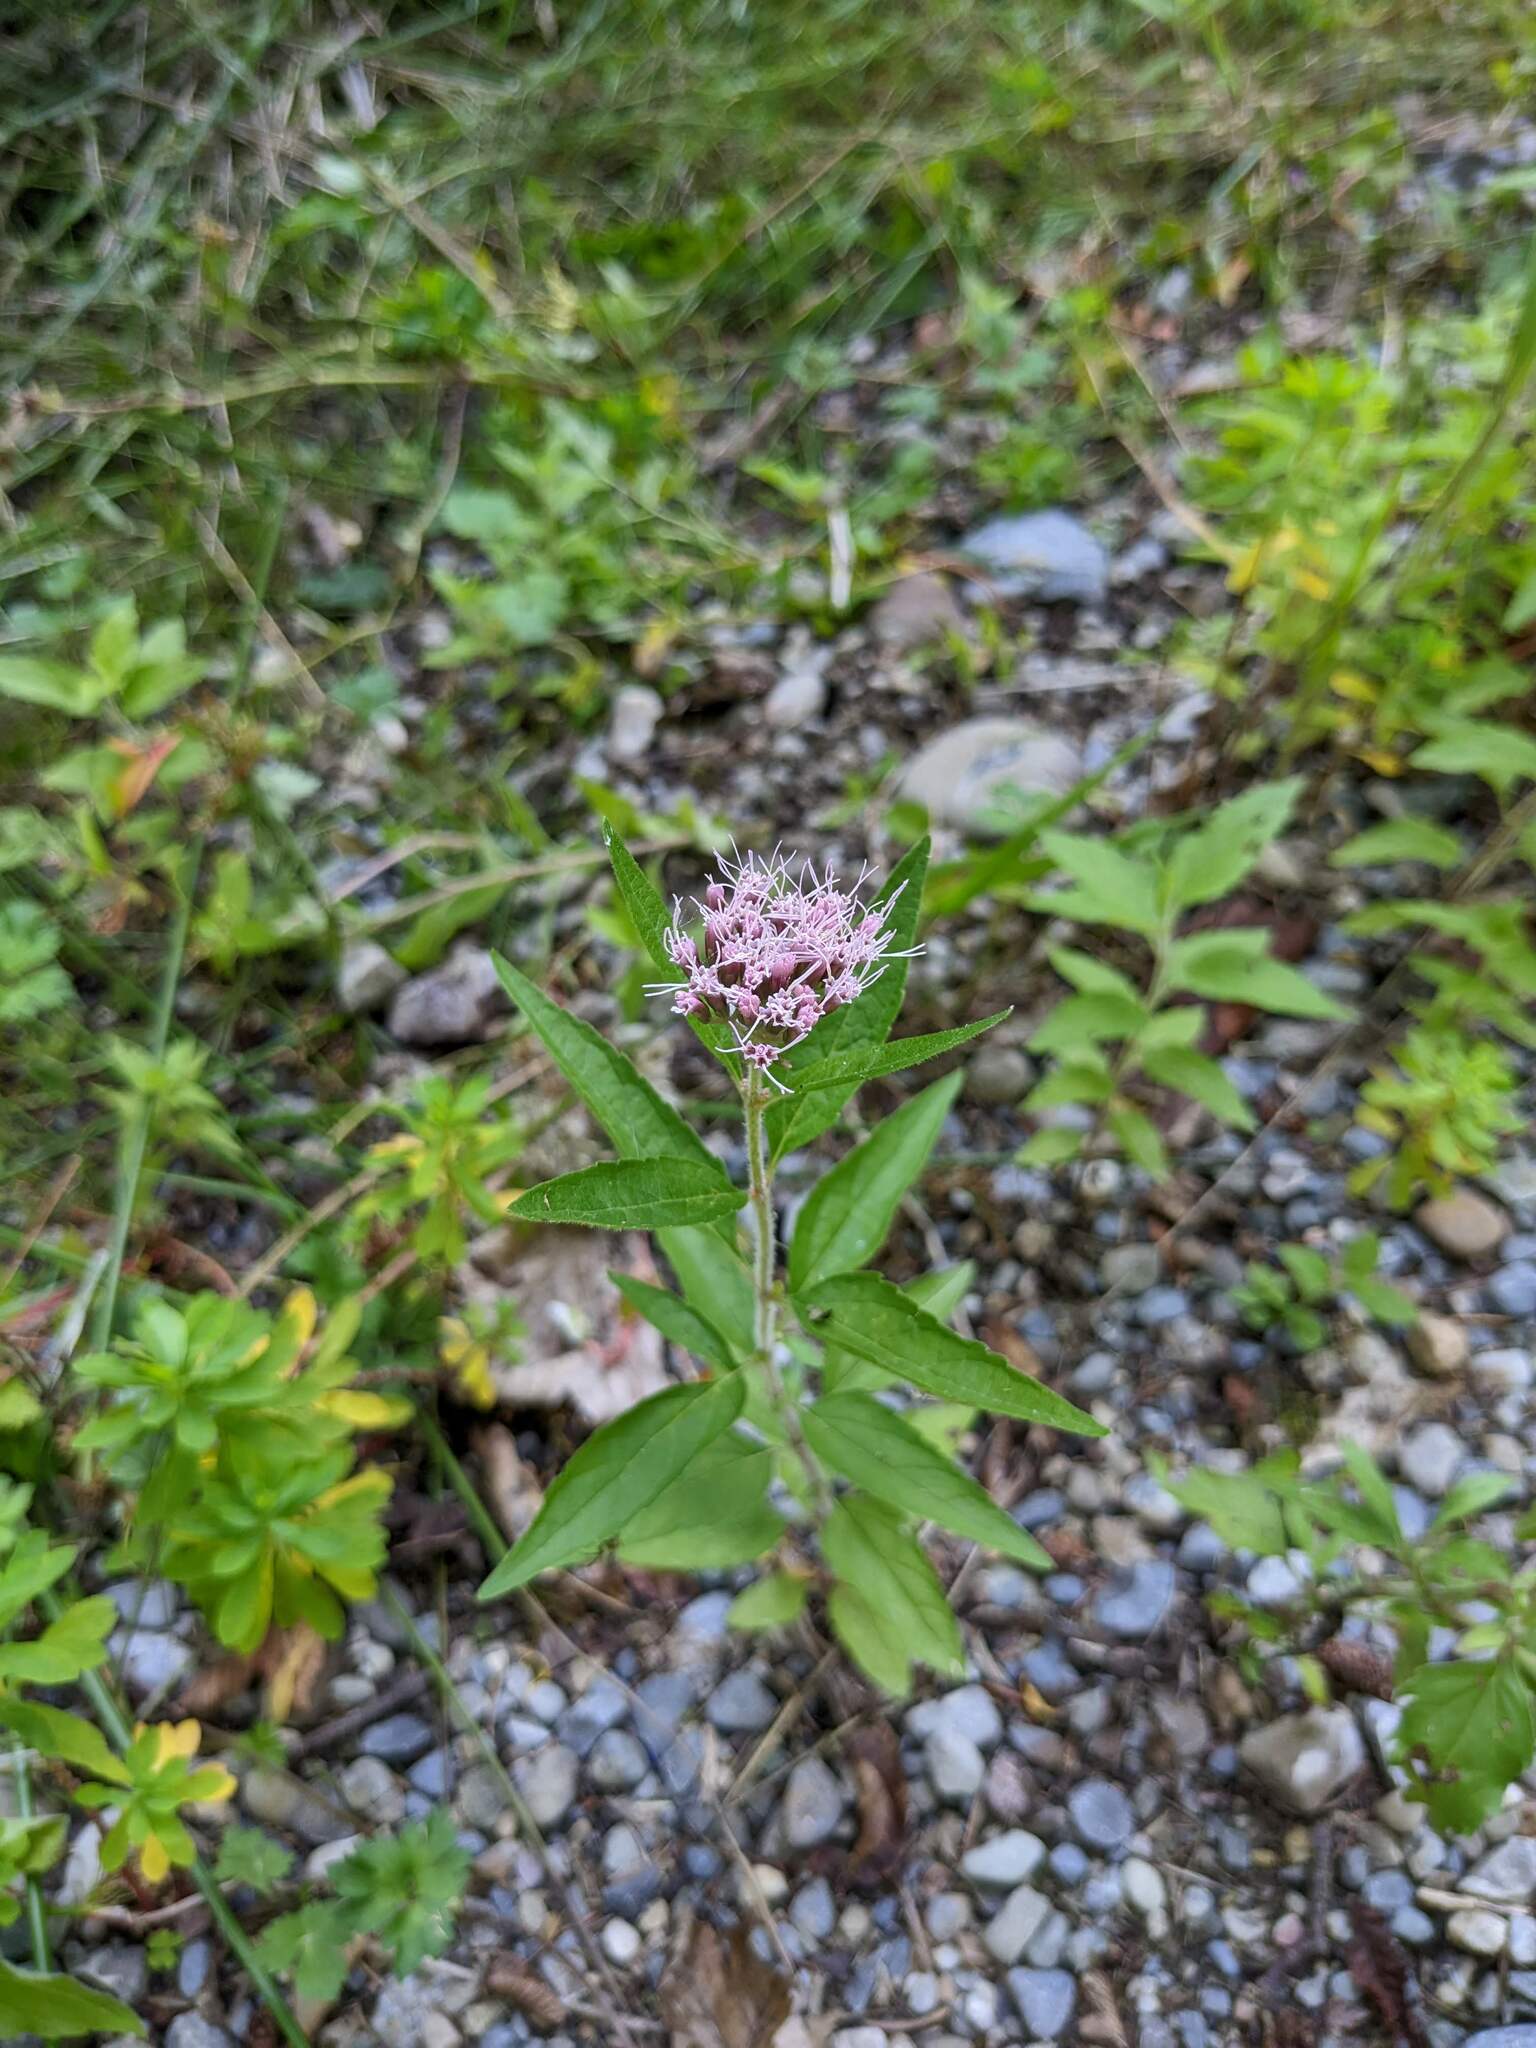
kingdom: Plantae
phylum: Tracheophyta
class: Magnoliopsida
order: Asterales
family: Asteraceae
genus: Eupatorium
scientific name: Eupatorium cannabinum
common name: Hemp-agrimony
